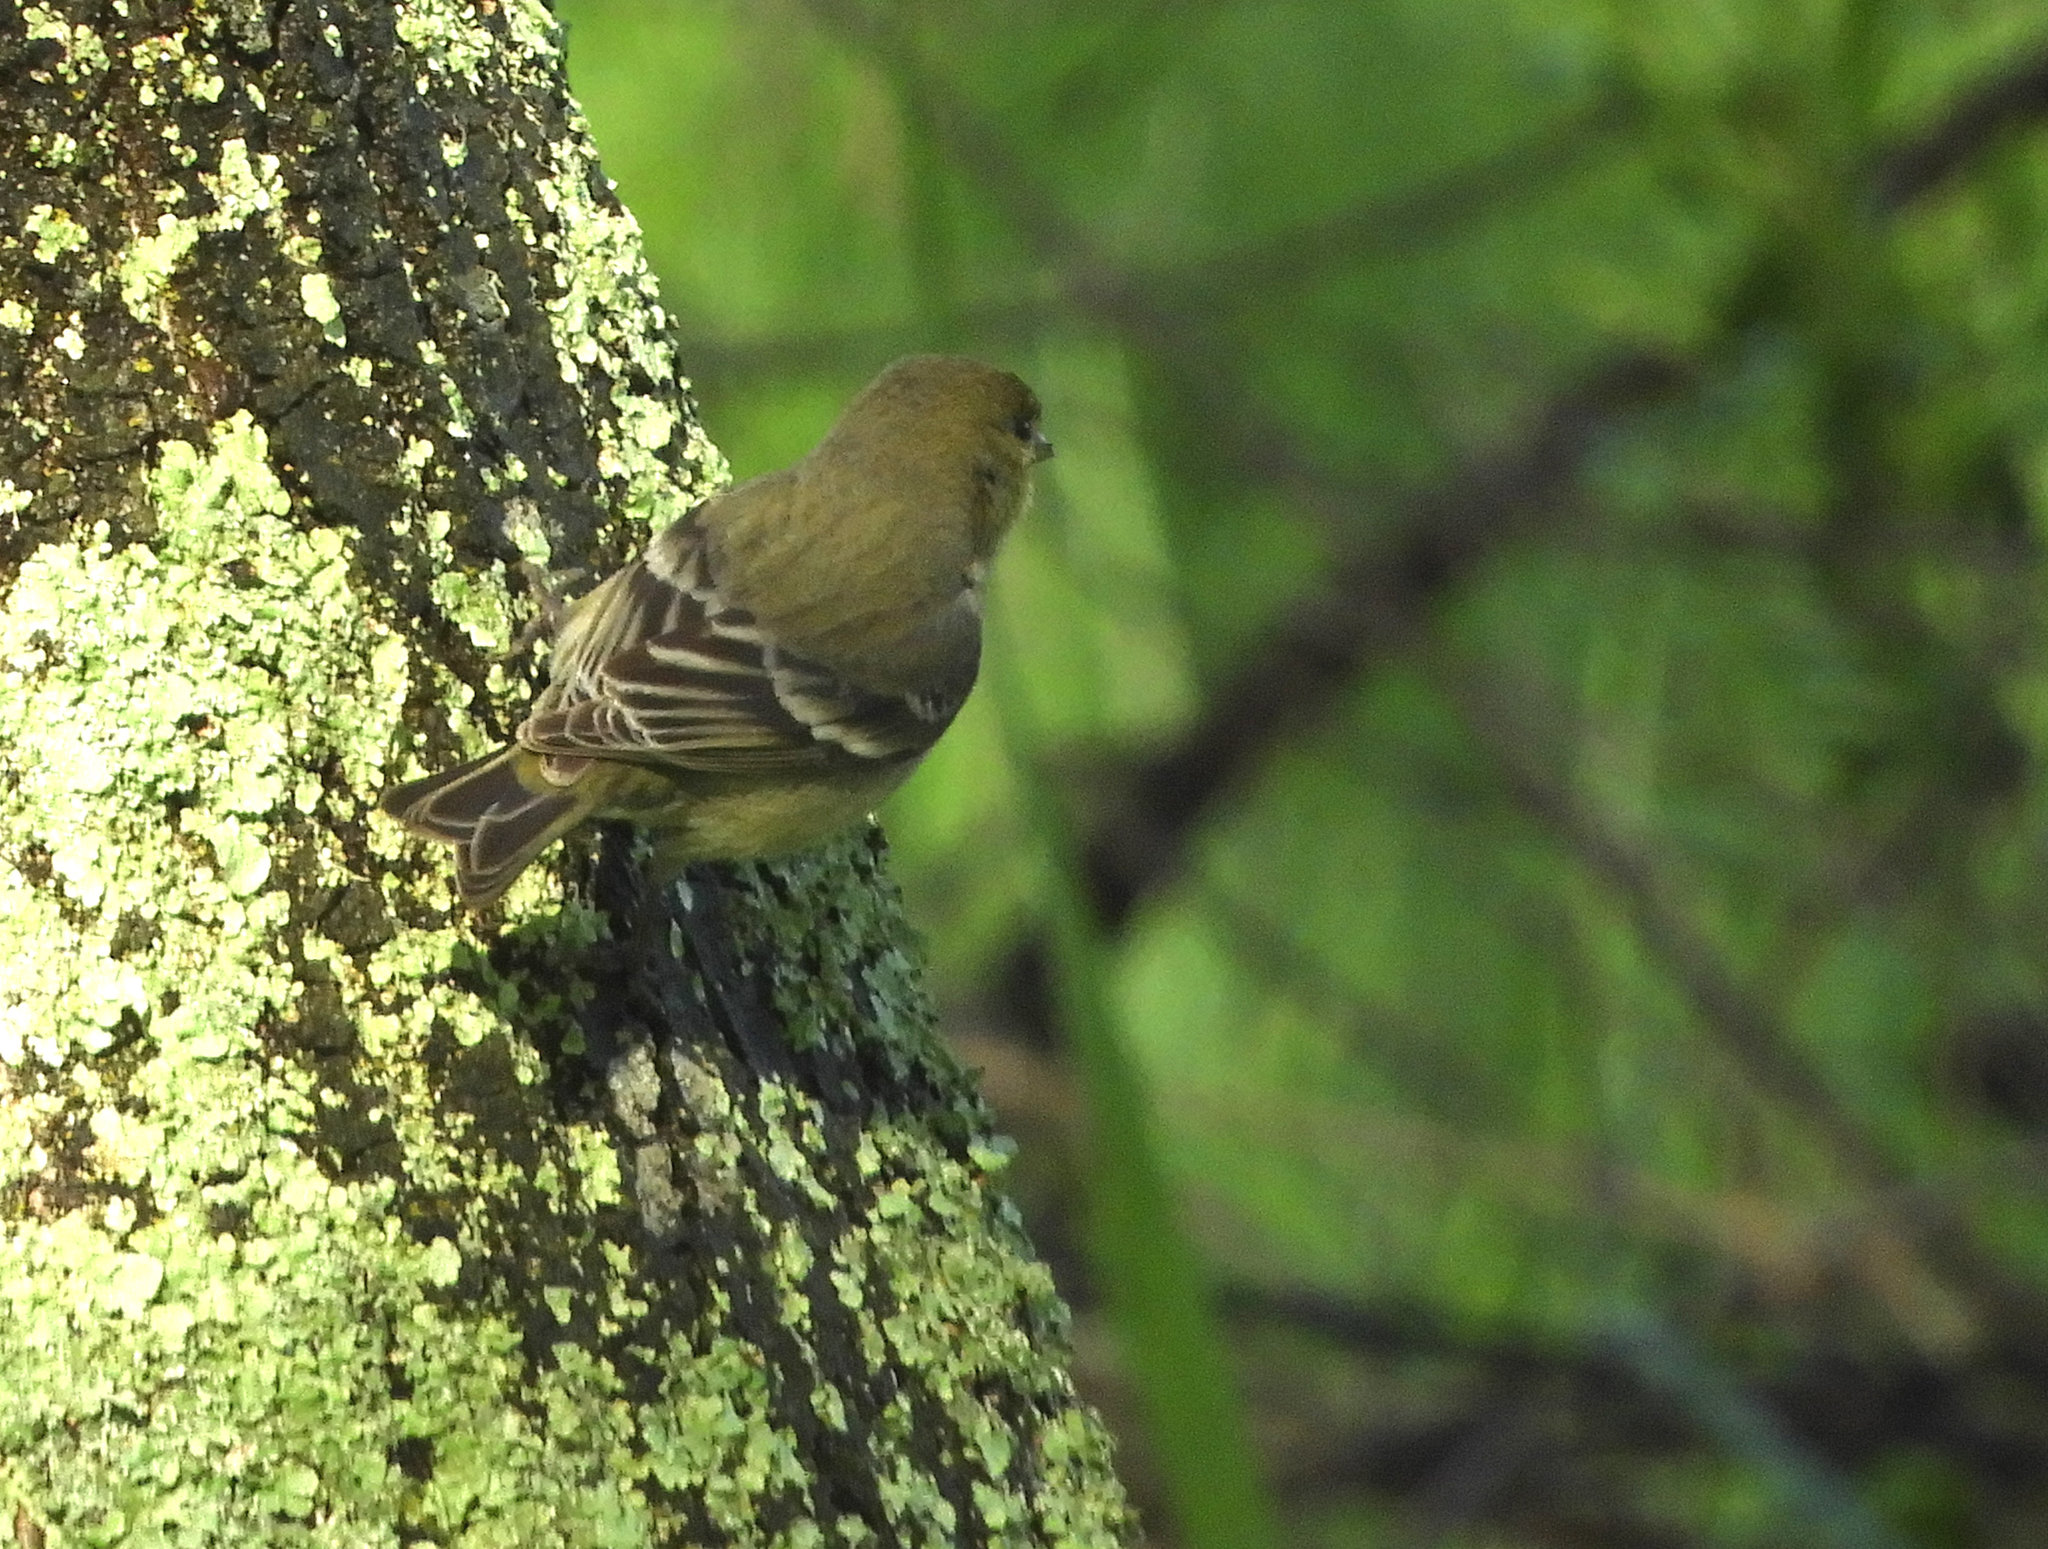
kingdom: Animalia
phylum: Chordata
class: Aves
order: Passeriformes
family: Fringillidae
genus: Spinus
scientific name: Spinus psaltria
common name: Lesser goldfinch
